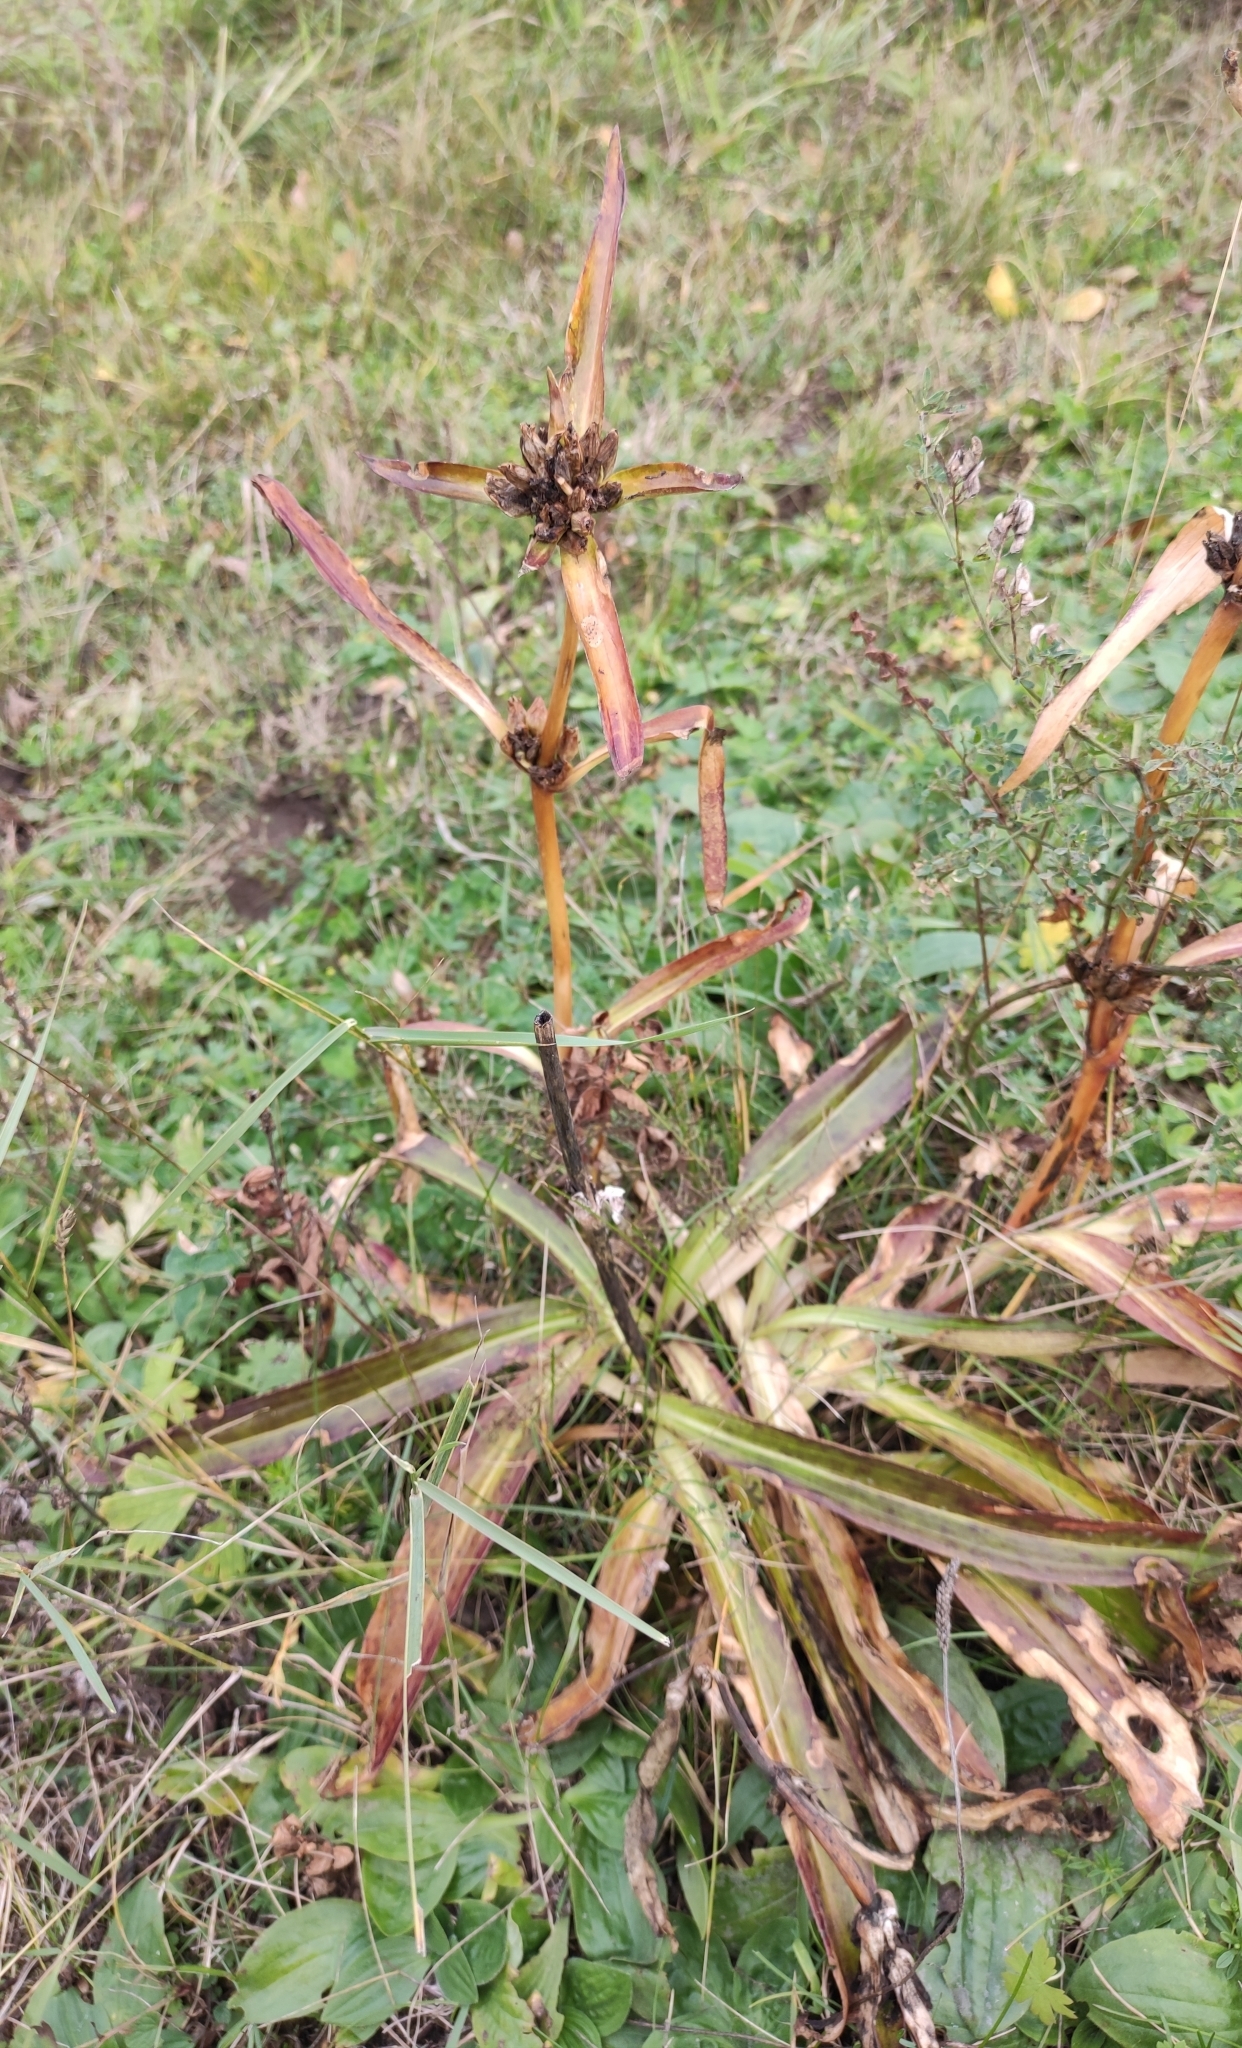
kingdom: Plantae
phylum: Tracheophyta
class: Magnoliopsida
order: Gentianales
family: Gentianaceae
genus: Gentiana
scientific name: Gentiana macrophylla
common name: Large-leaf gentian
